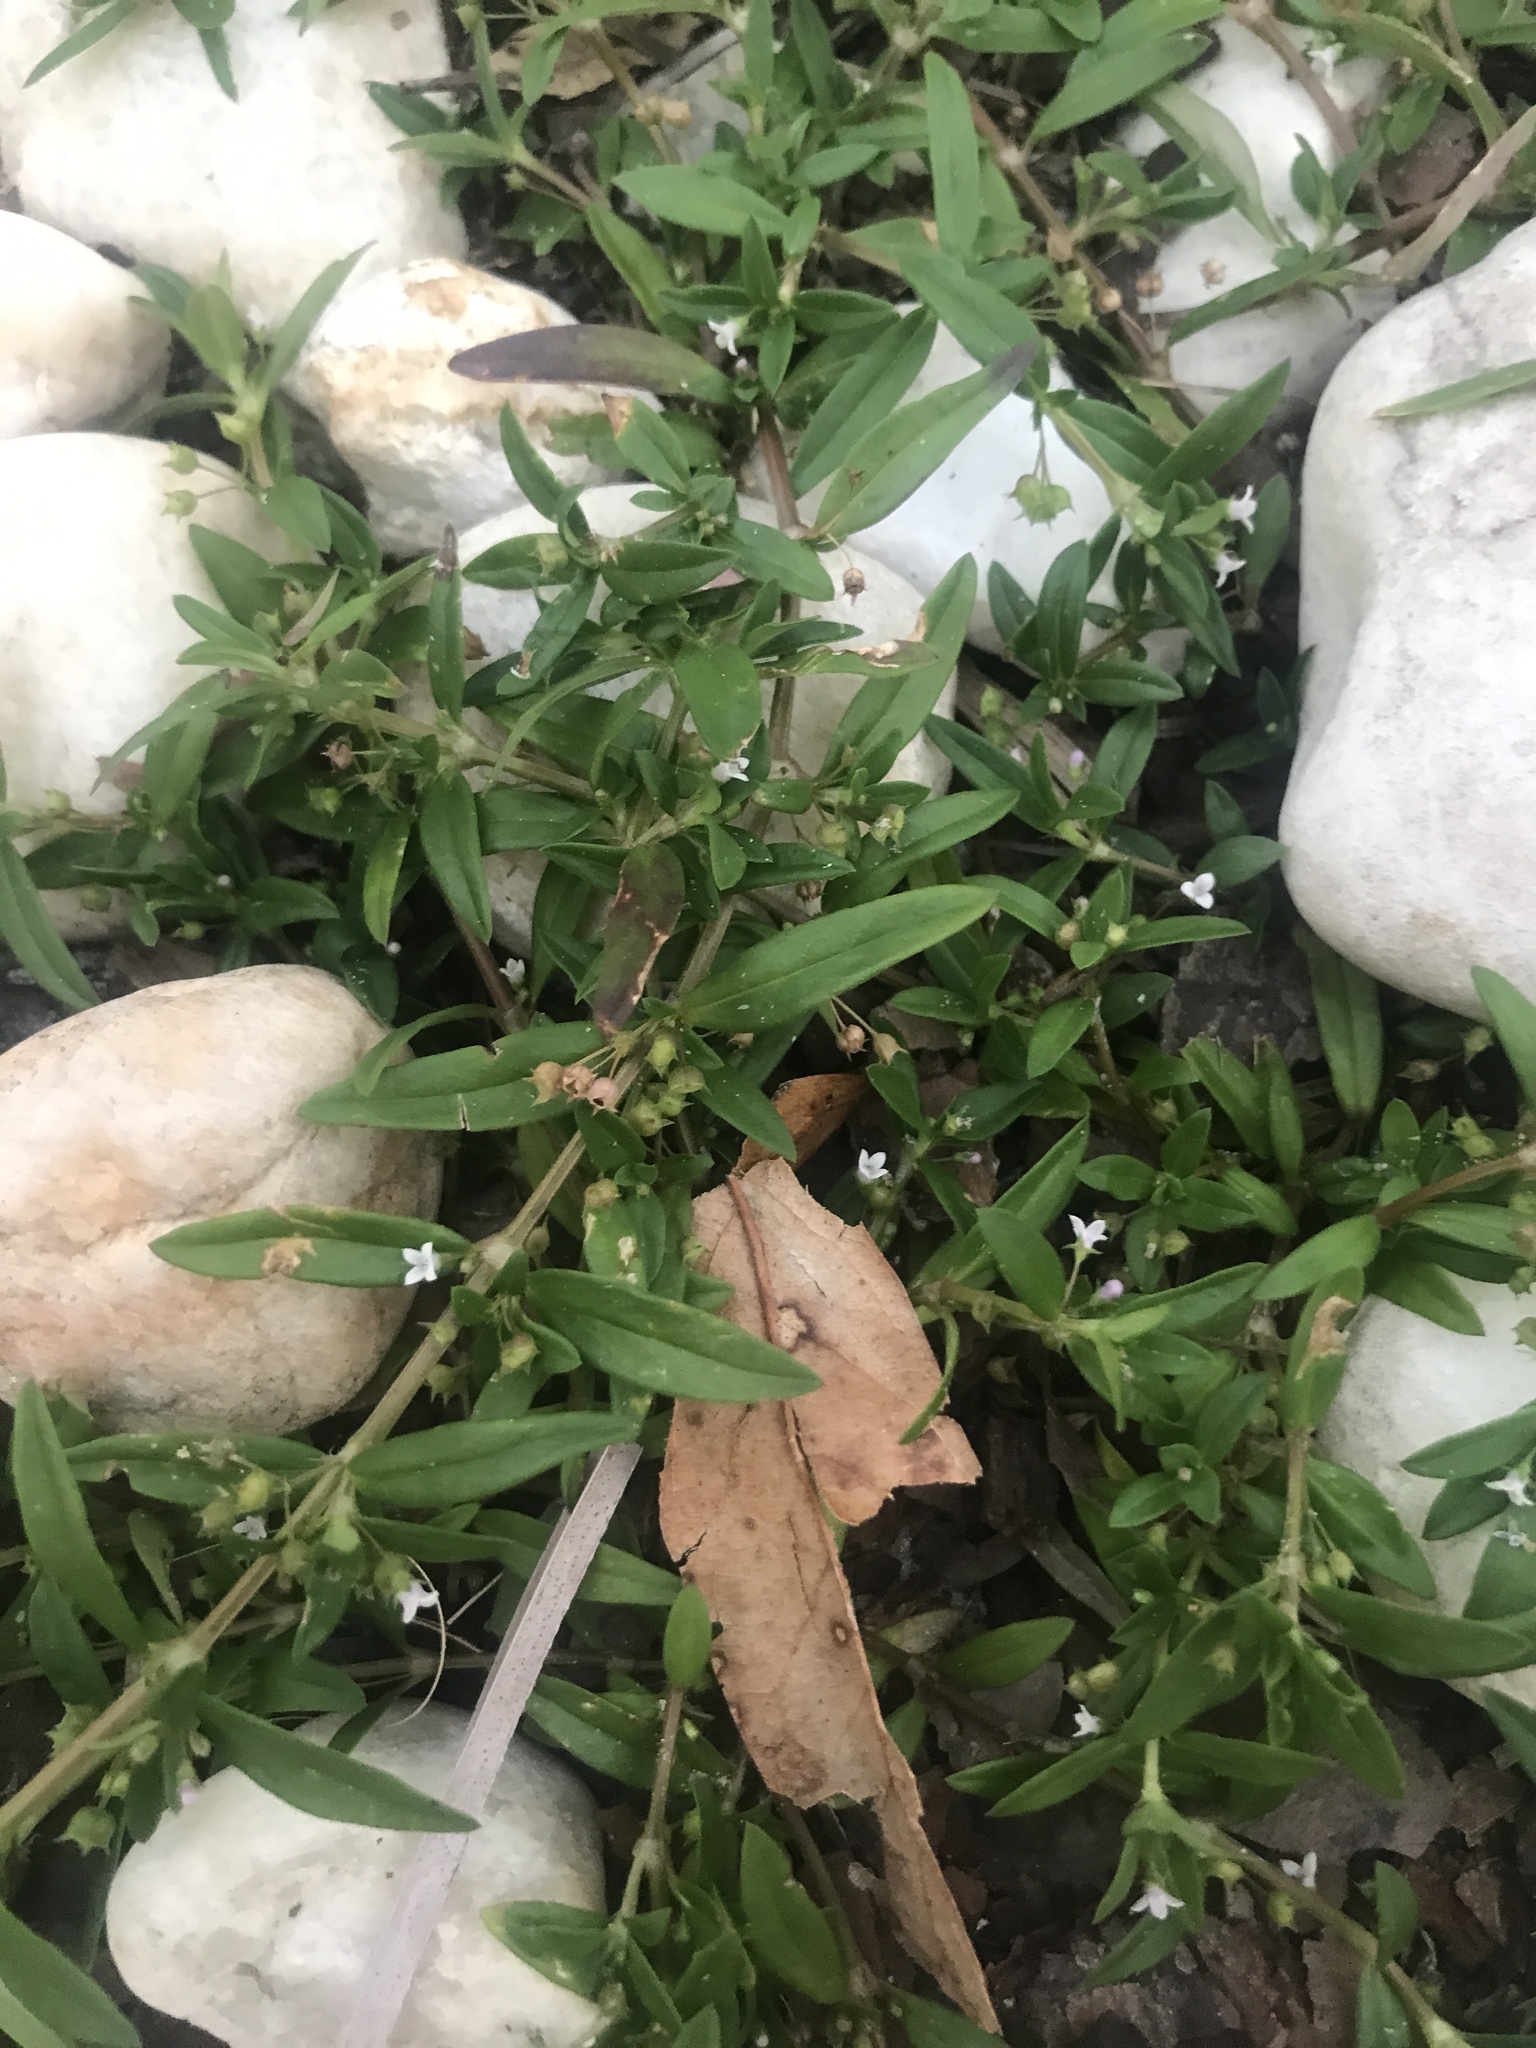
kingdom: Plantae
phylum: Tracheophyta
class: Magnoliopsida
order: Gentianales
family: Rubiaceae
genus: Oldenlandia
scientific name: Oldenlandia corymbosa
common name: Flat-top mille graines
